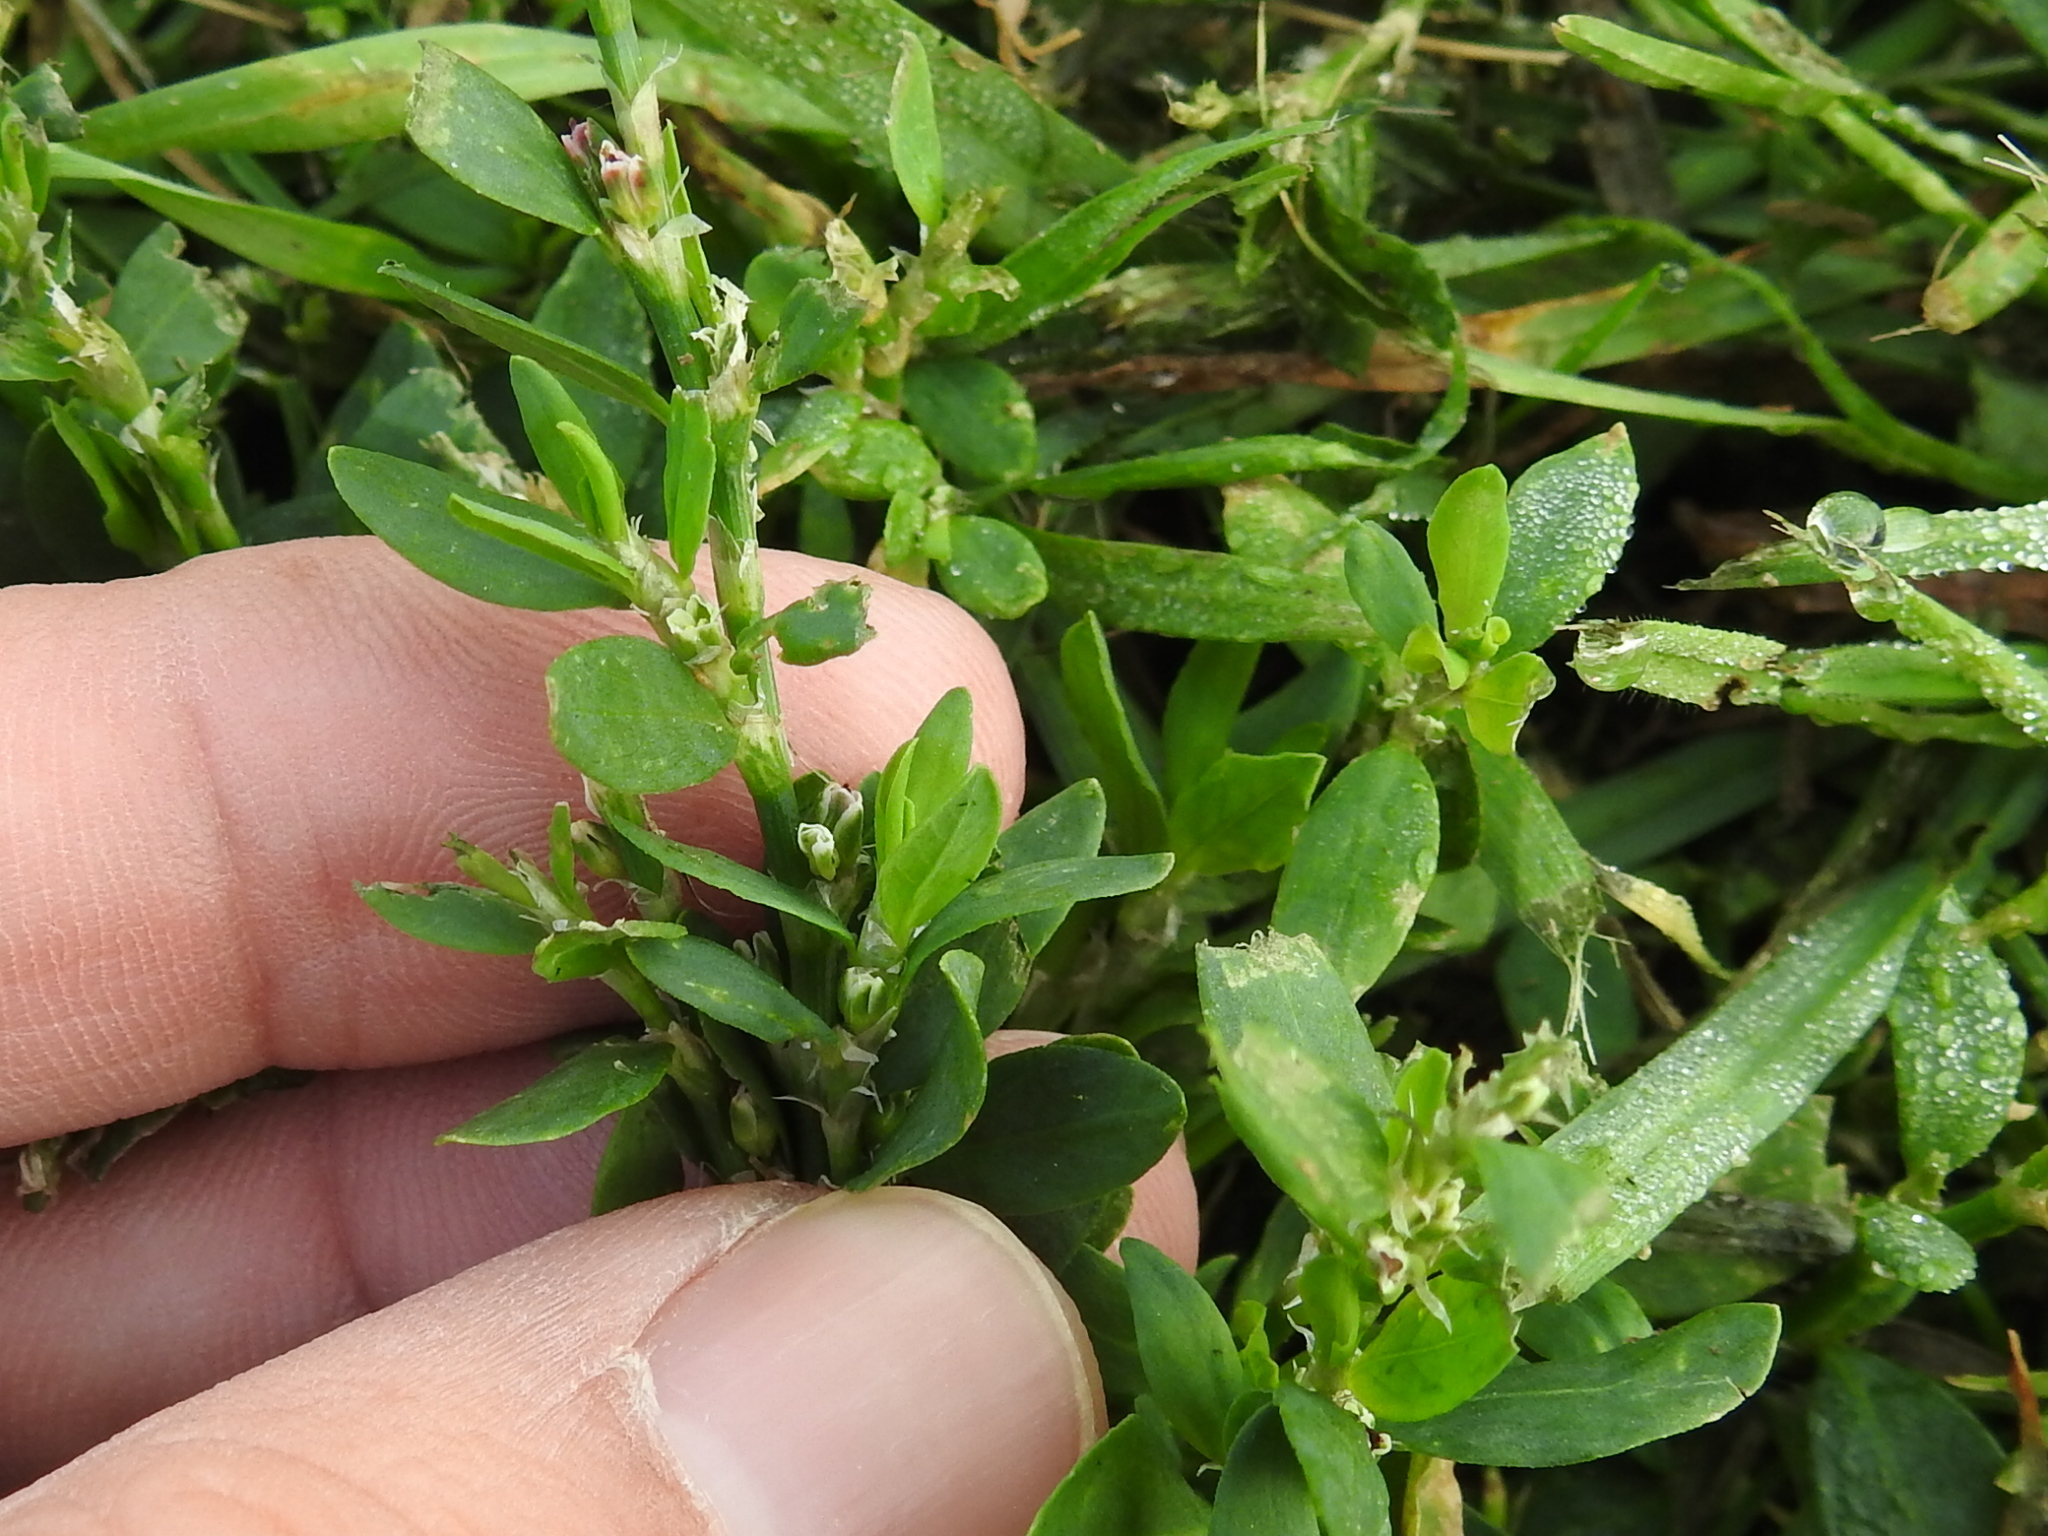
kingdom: Plantae
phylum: Tracheophyta
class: Magnoliopsida
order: Caryophyllales
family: Polygonaceae
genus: Polygonum
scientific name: Polygonum aviculare
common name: Prostrate knotweed
